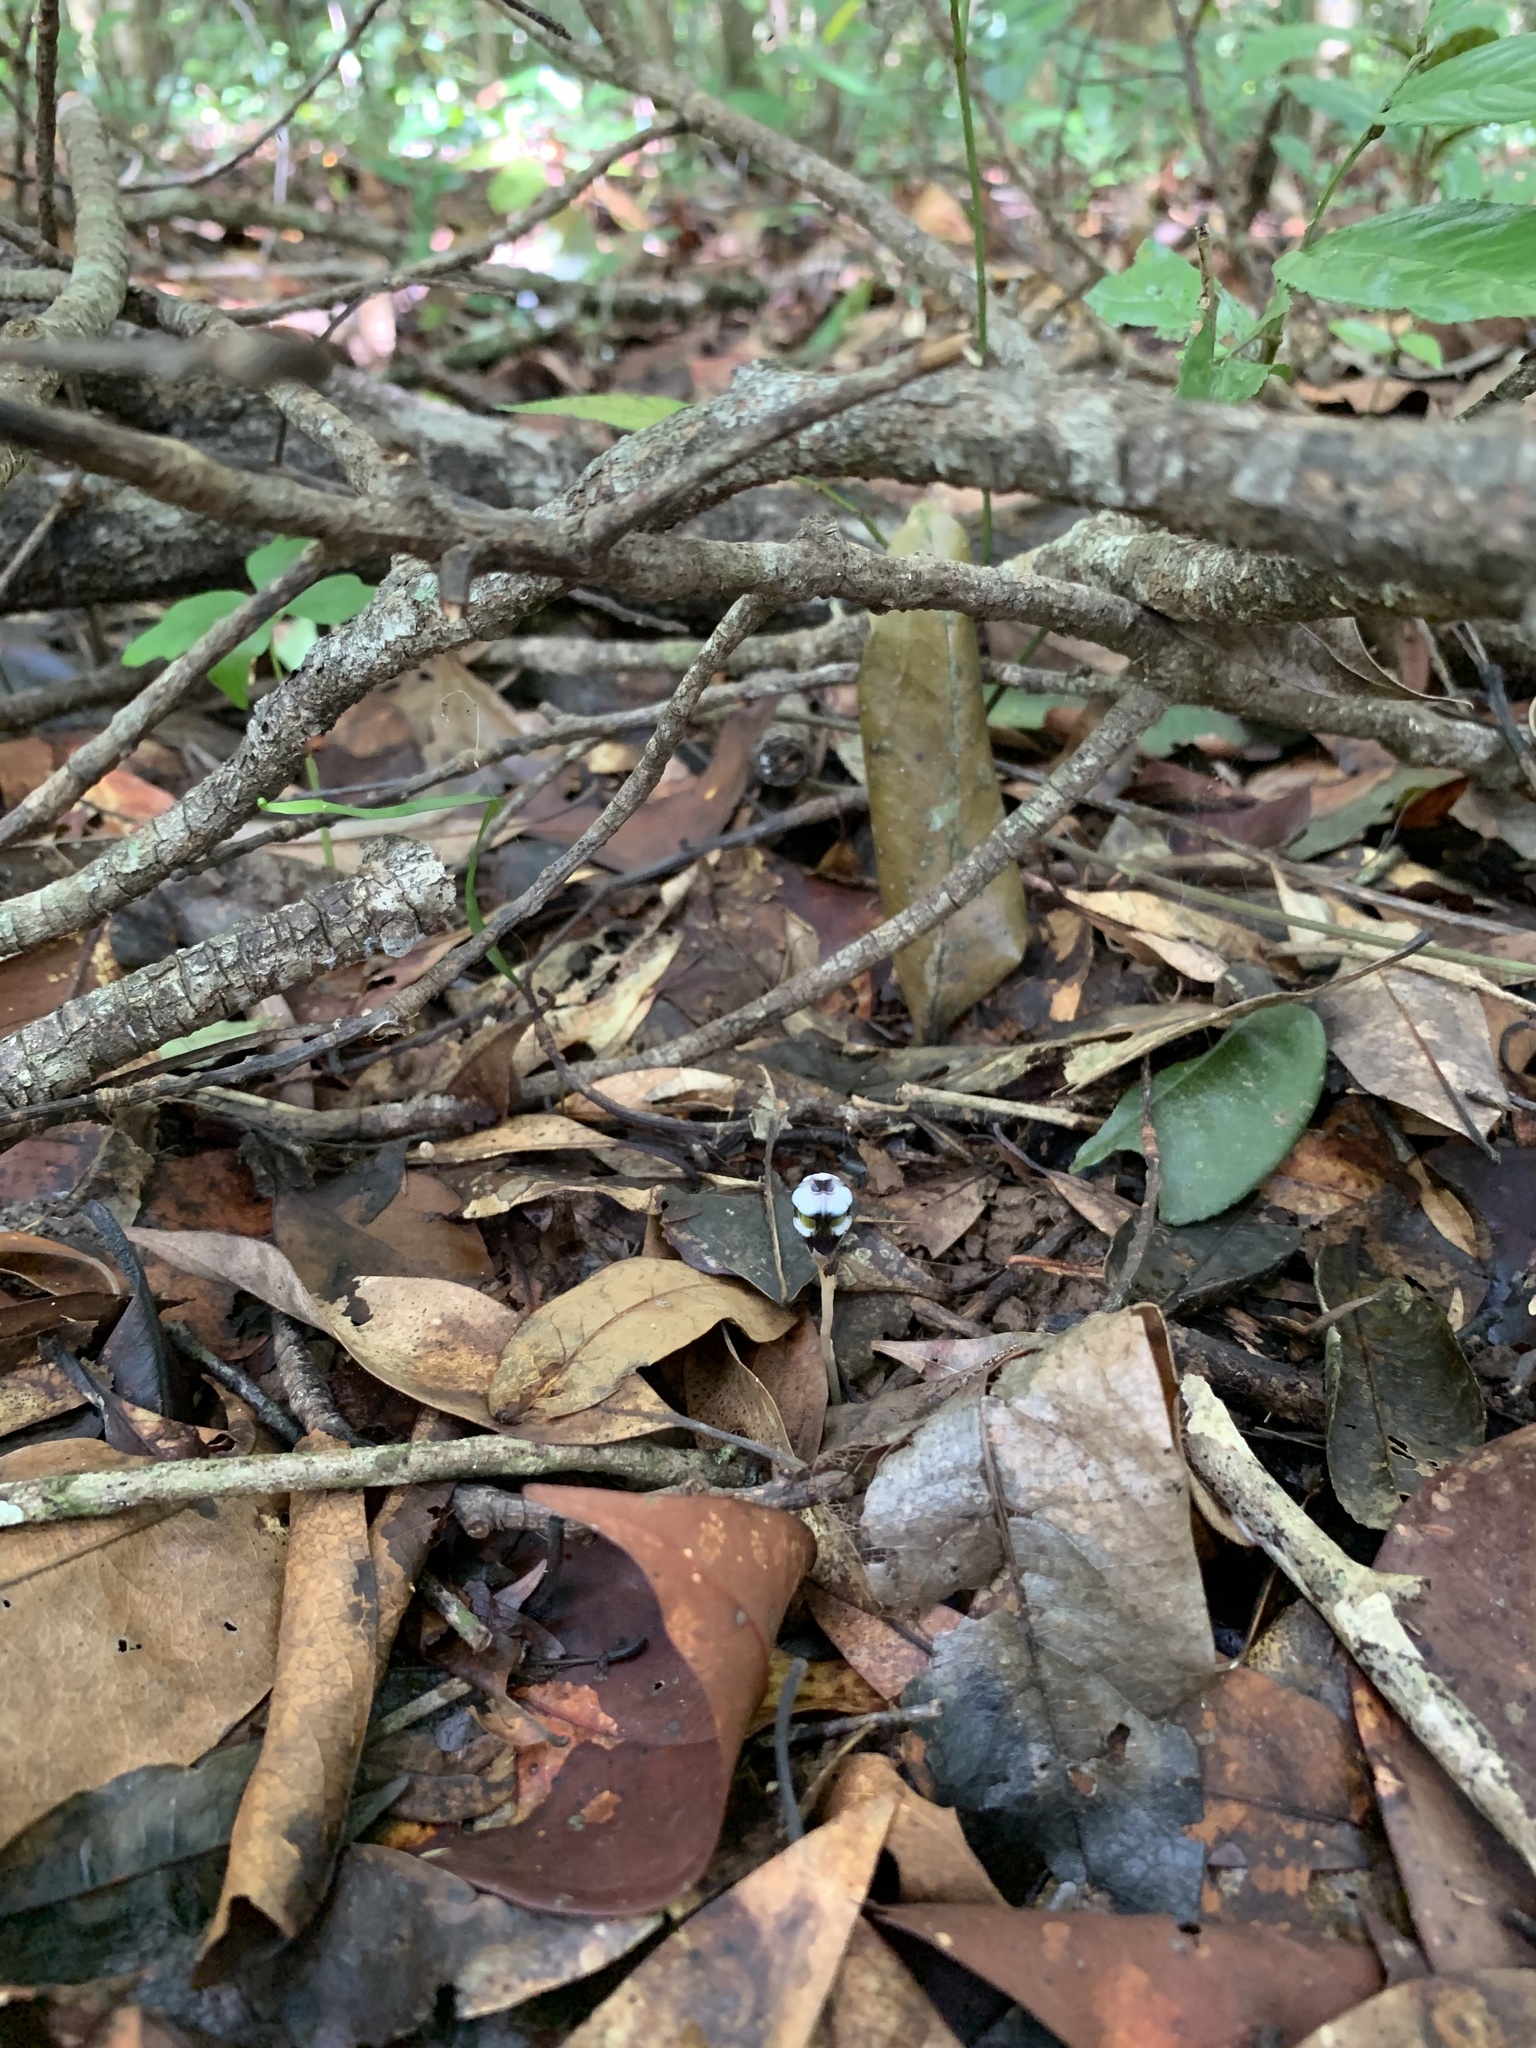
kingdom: Plantae
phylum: Tracheophyta
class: Liliopsida
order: Dioscoreales
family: Burmanniaceae
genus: Thismia
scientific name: Thismia mirabilis
